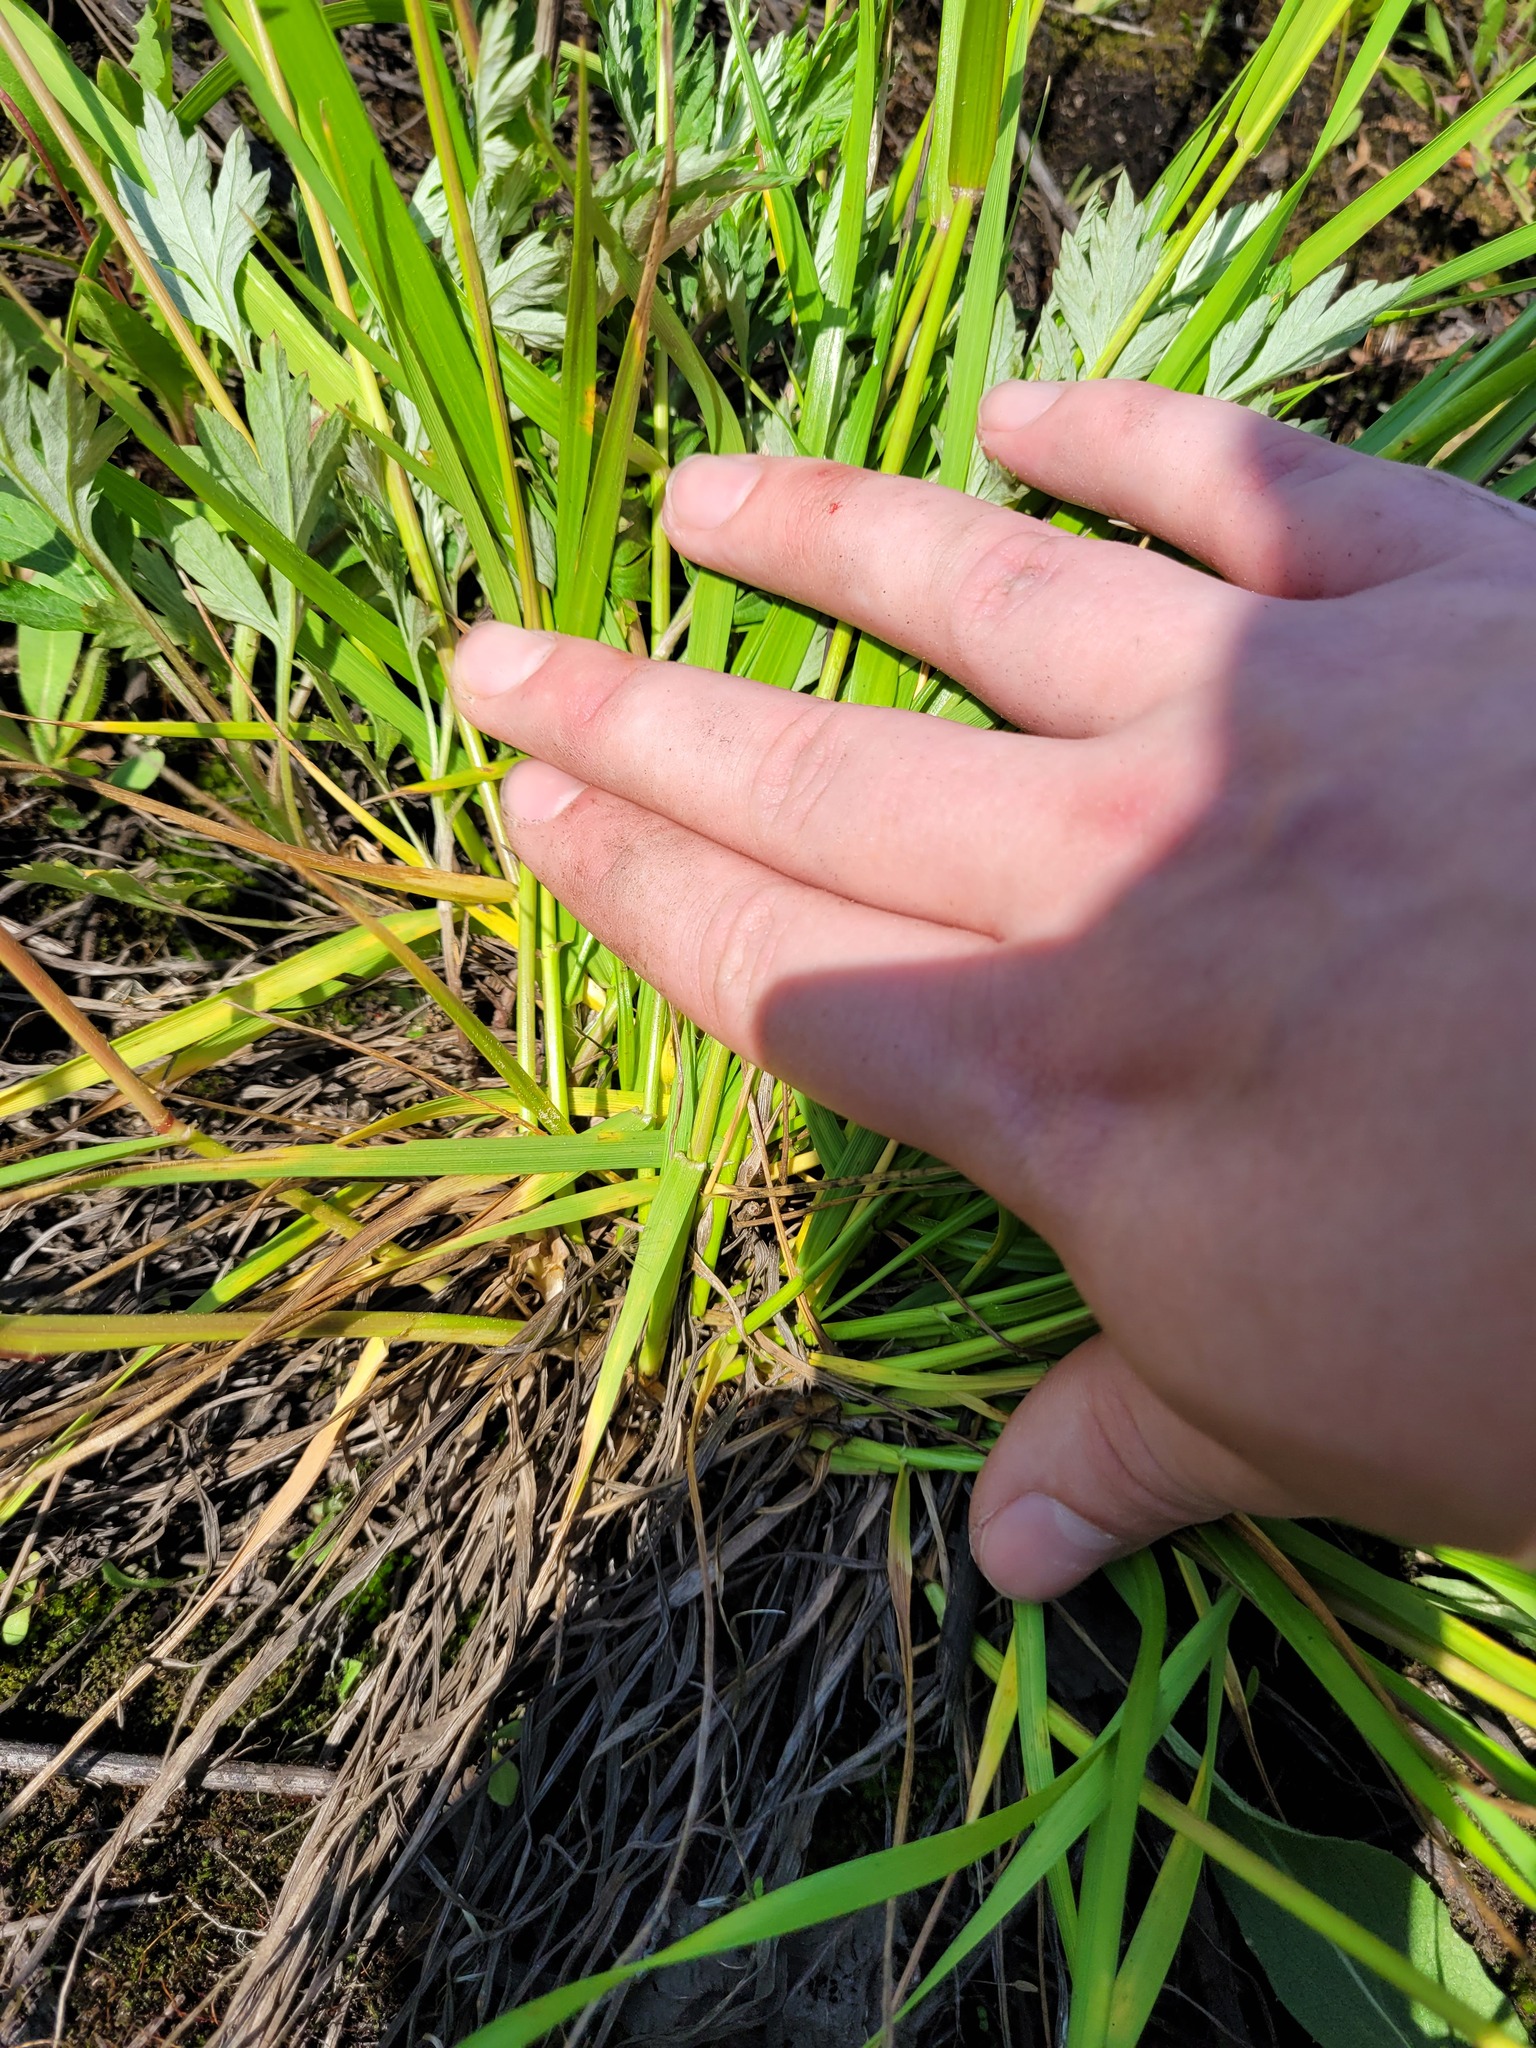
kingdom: Plantae
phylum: Tracheophyta
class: Liliopsida
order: Poales
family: Poaceae
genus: Lolium
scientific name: Lolium pratense
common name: Dover grass
